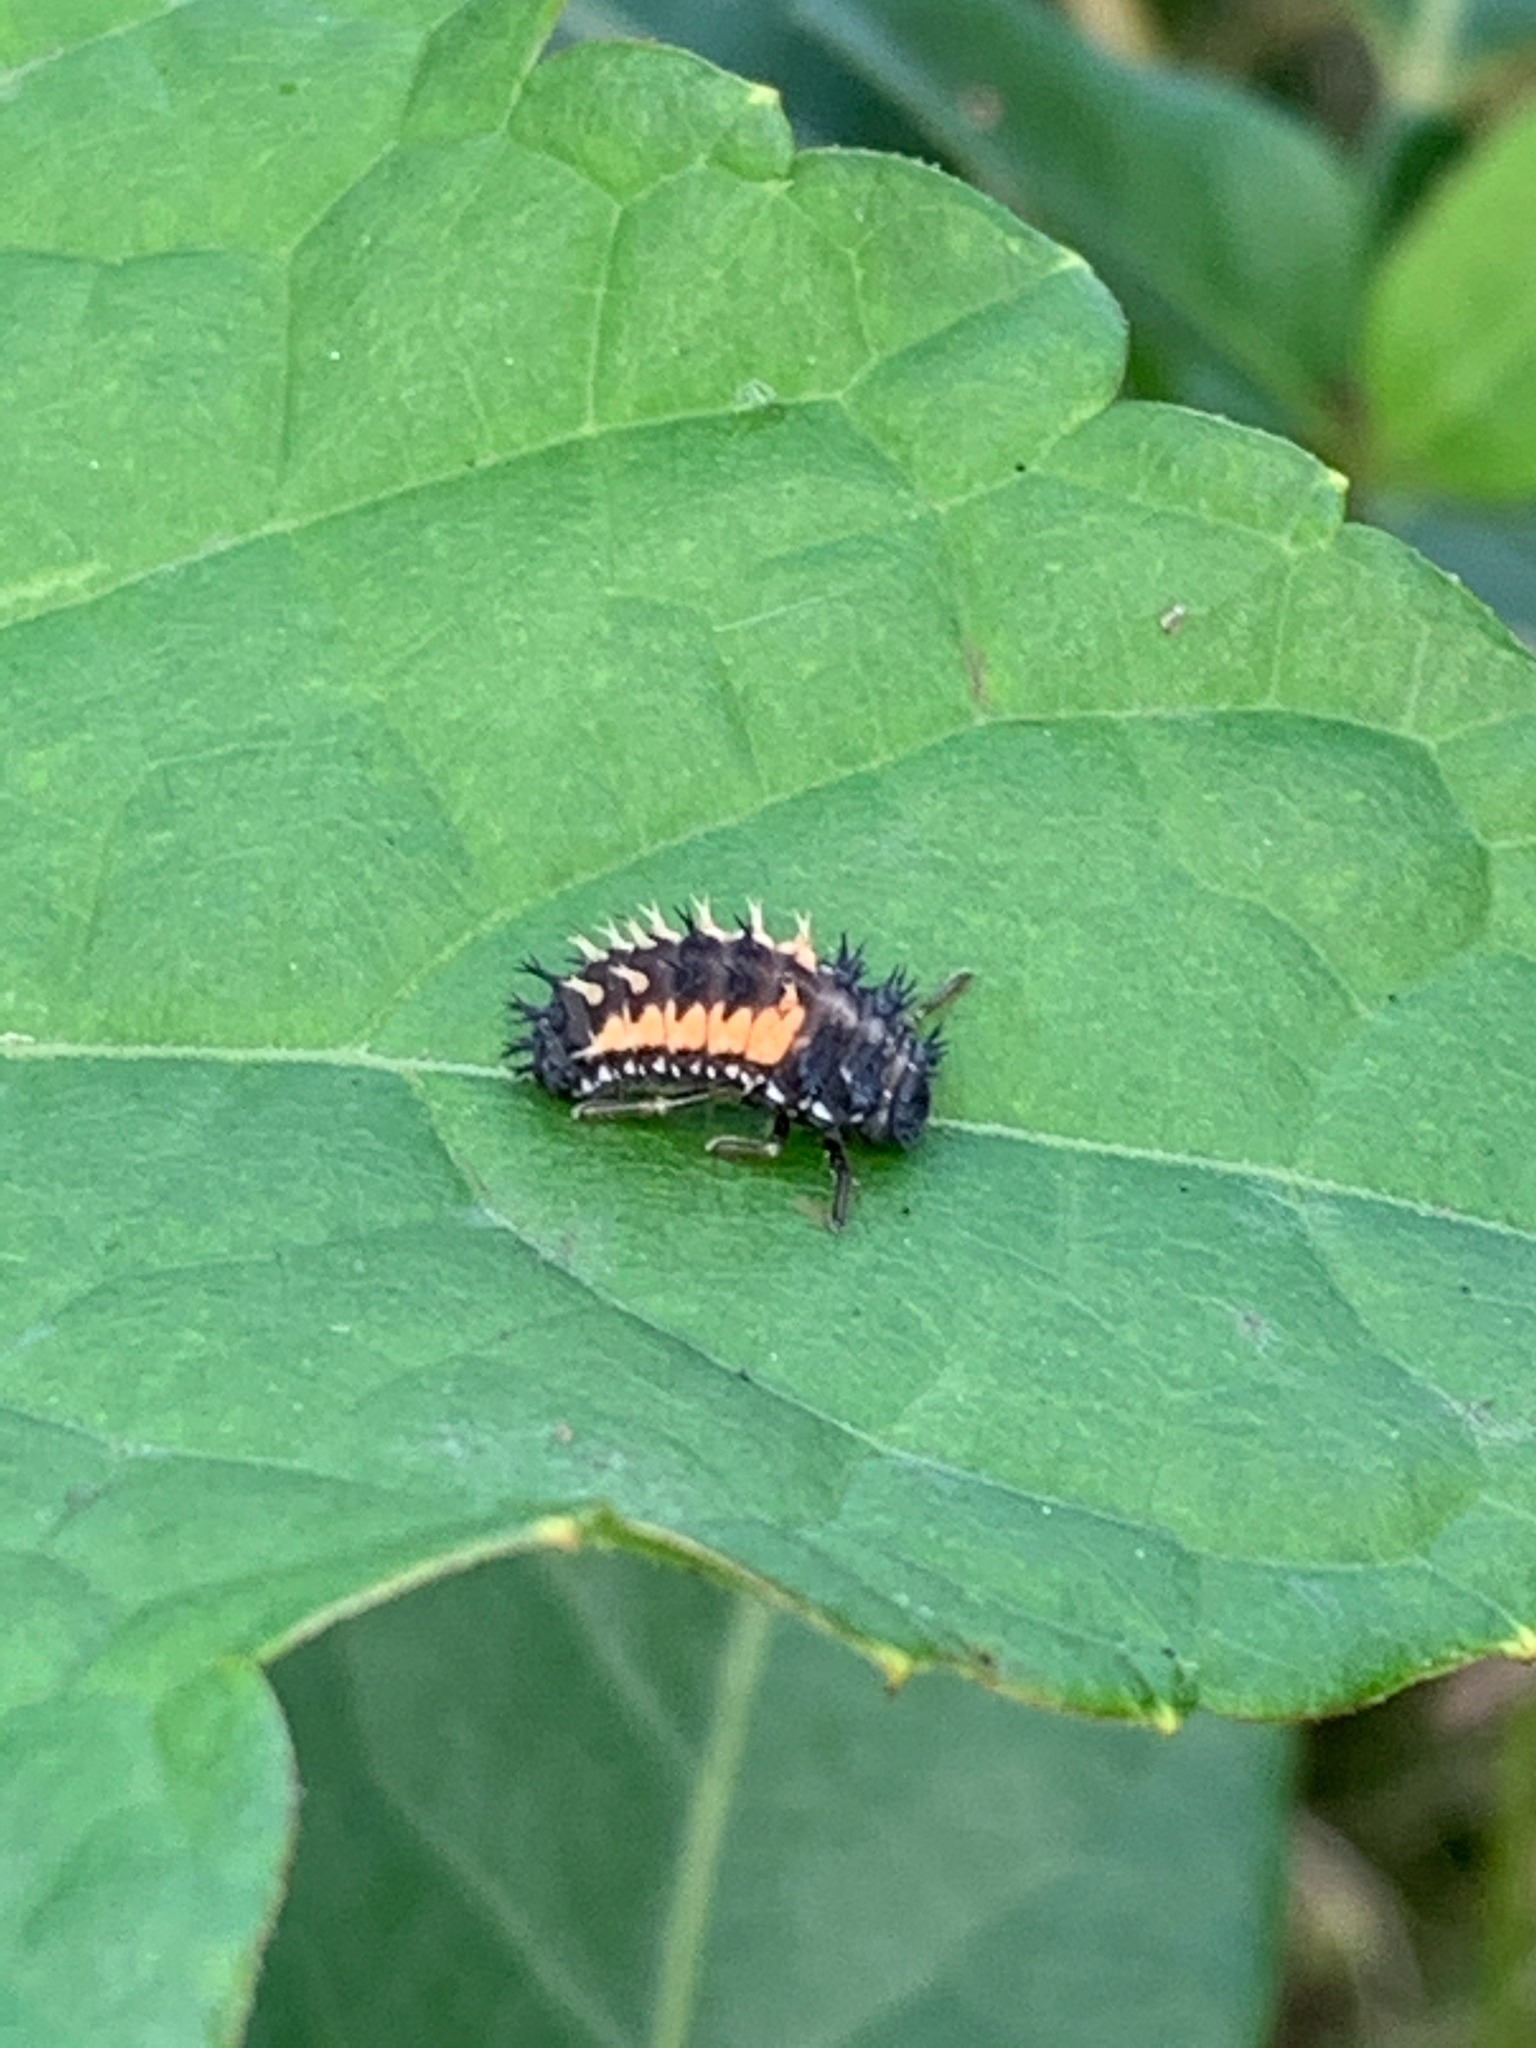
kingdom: Animalia
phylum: Arthropoda
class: Insecta
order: Coleoptera
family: Coccinellidae
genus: Harmonia
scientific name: Harmonia axyridis
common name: Harlequin ladybird
